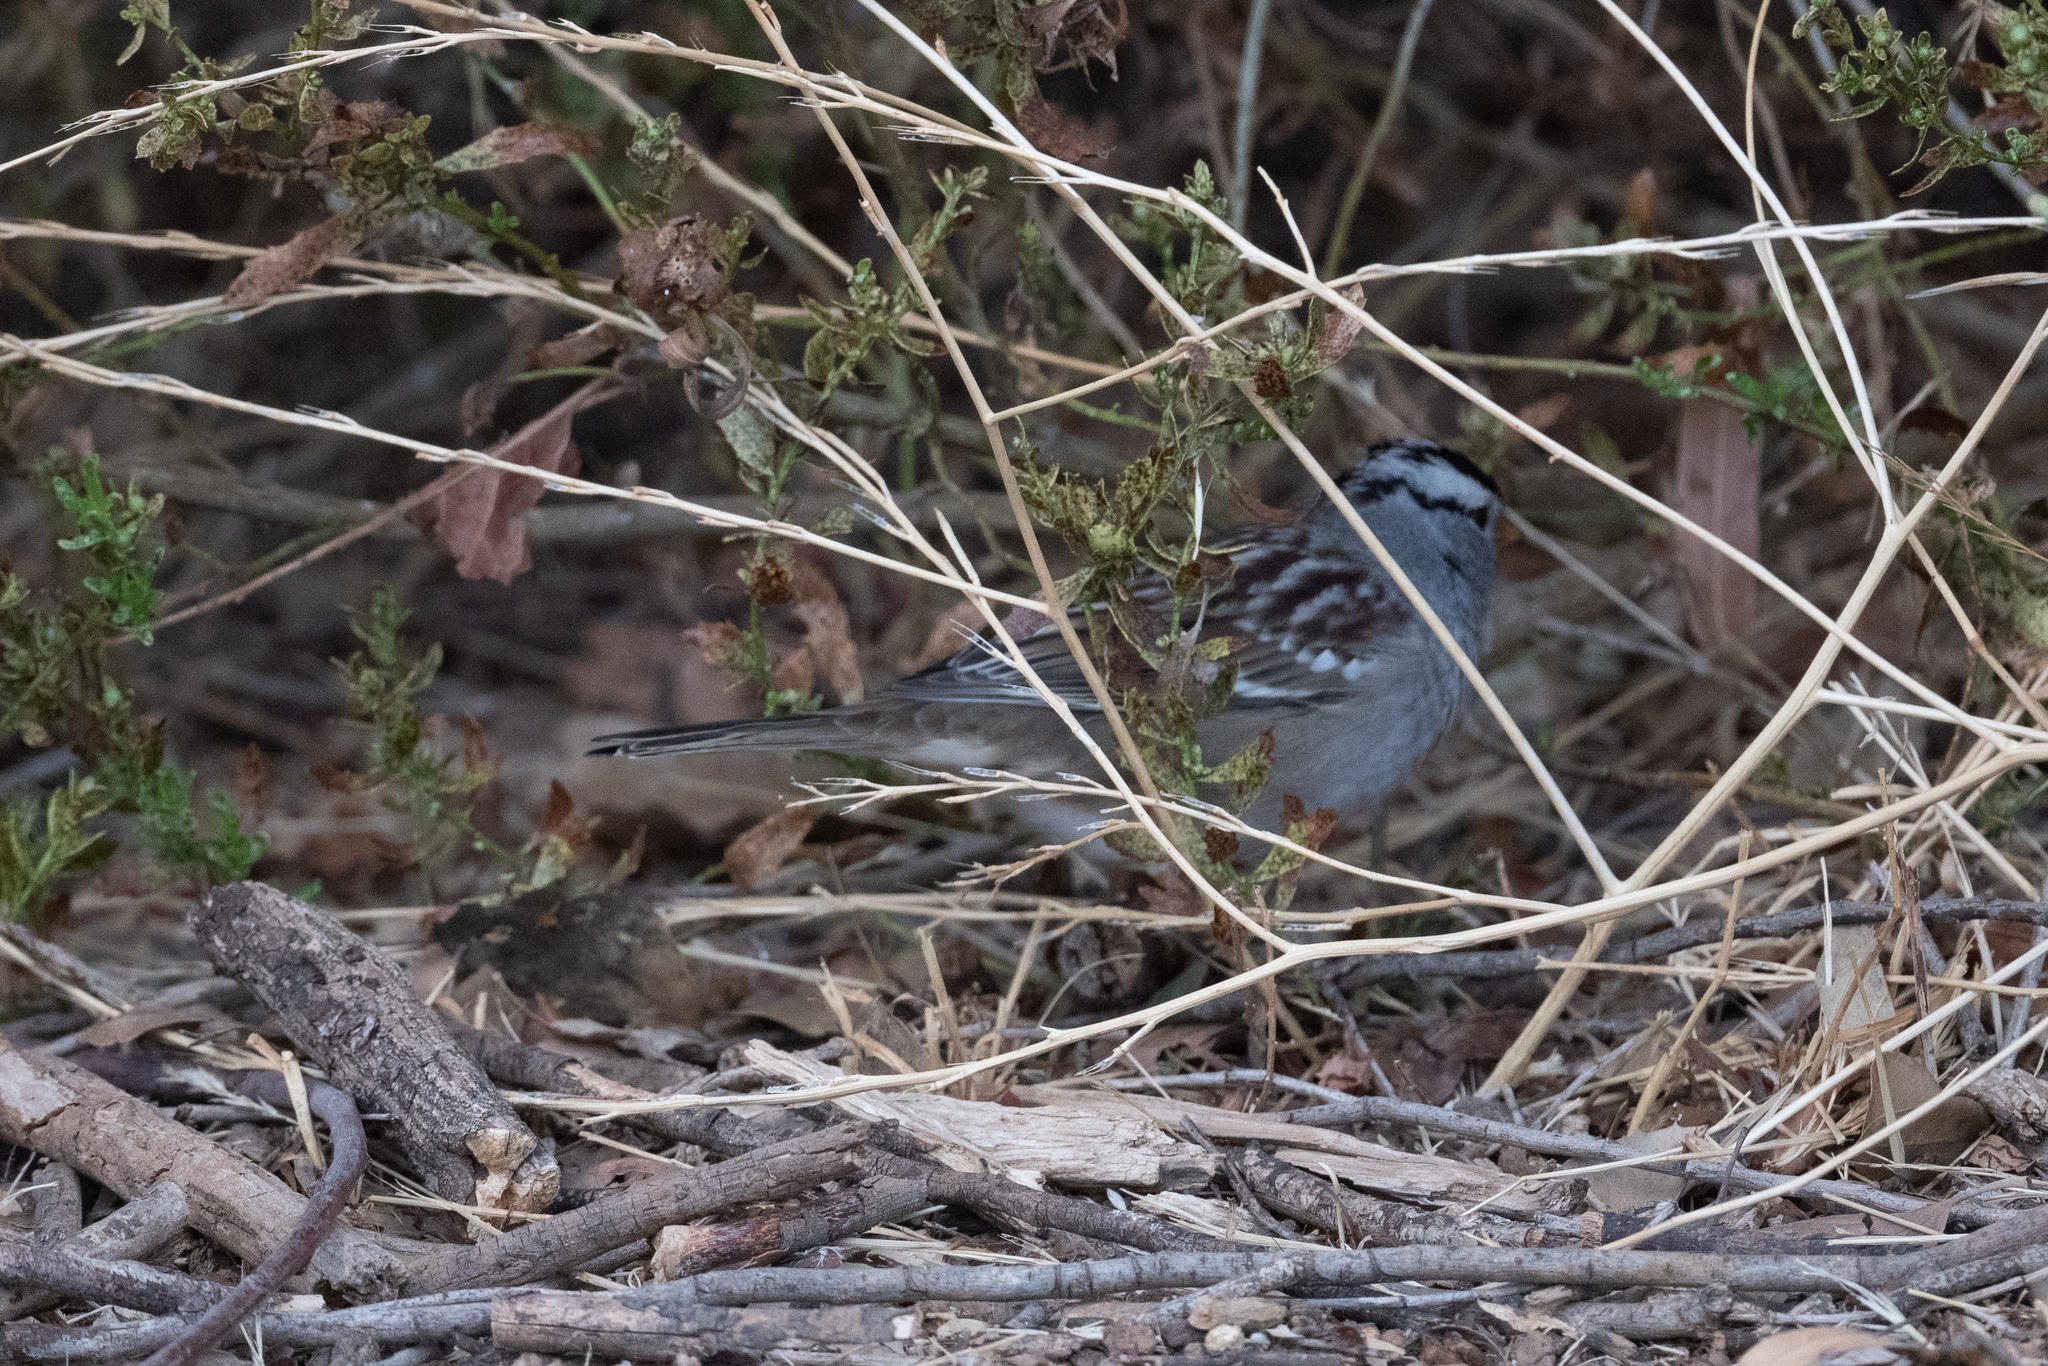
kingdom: Animalia
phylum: Chordata
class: Aves
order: Passeriformes
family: Passerellidae
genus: Zonotrichia
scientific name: Zonotrichia leucophrys
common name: White-crowned sparrow
